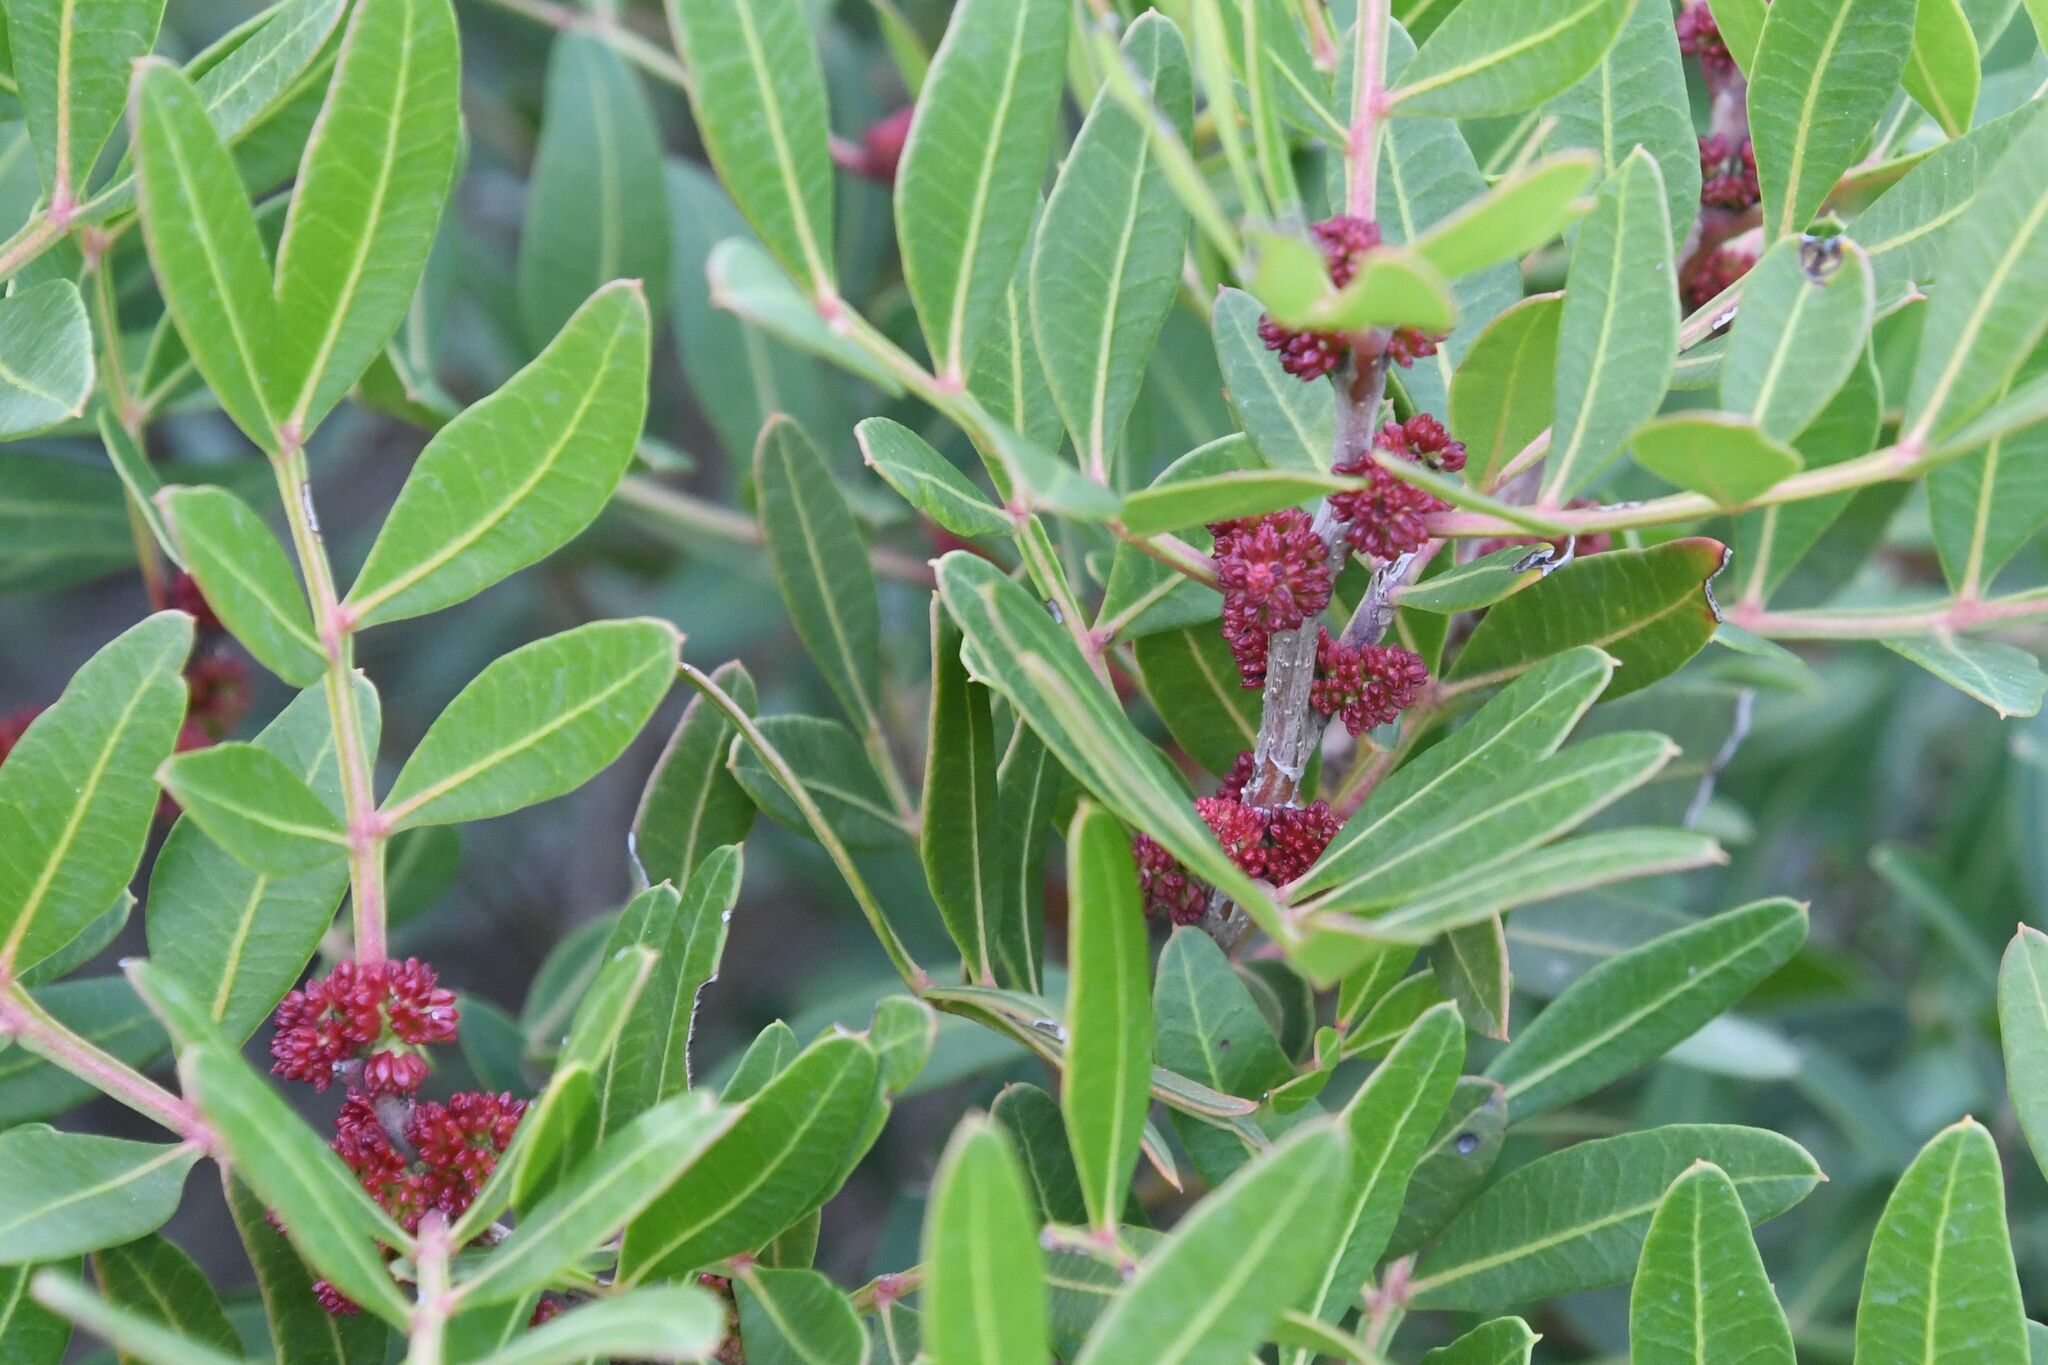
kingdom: Plantae
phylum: Tracheophyta
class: Magnoliopsida
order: Sapindales
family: Anacardiaceae
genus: Pistacia
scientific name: Pistacia lentiscus
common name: Lentisk
